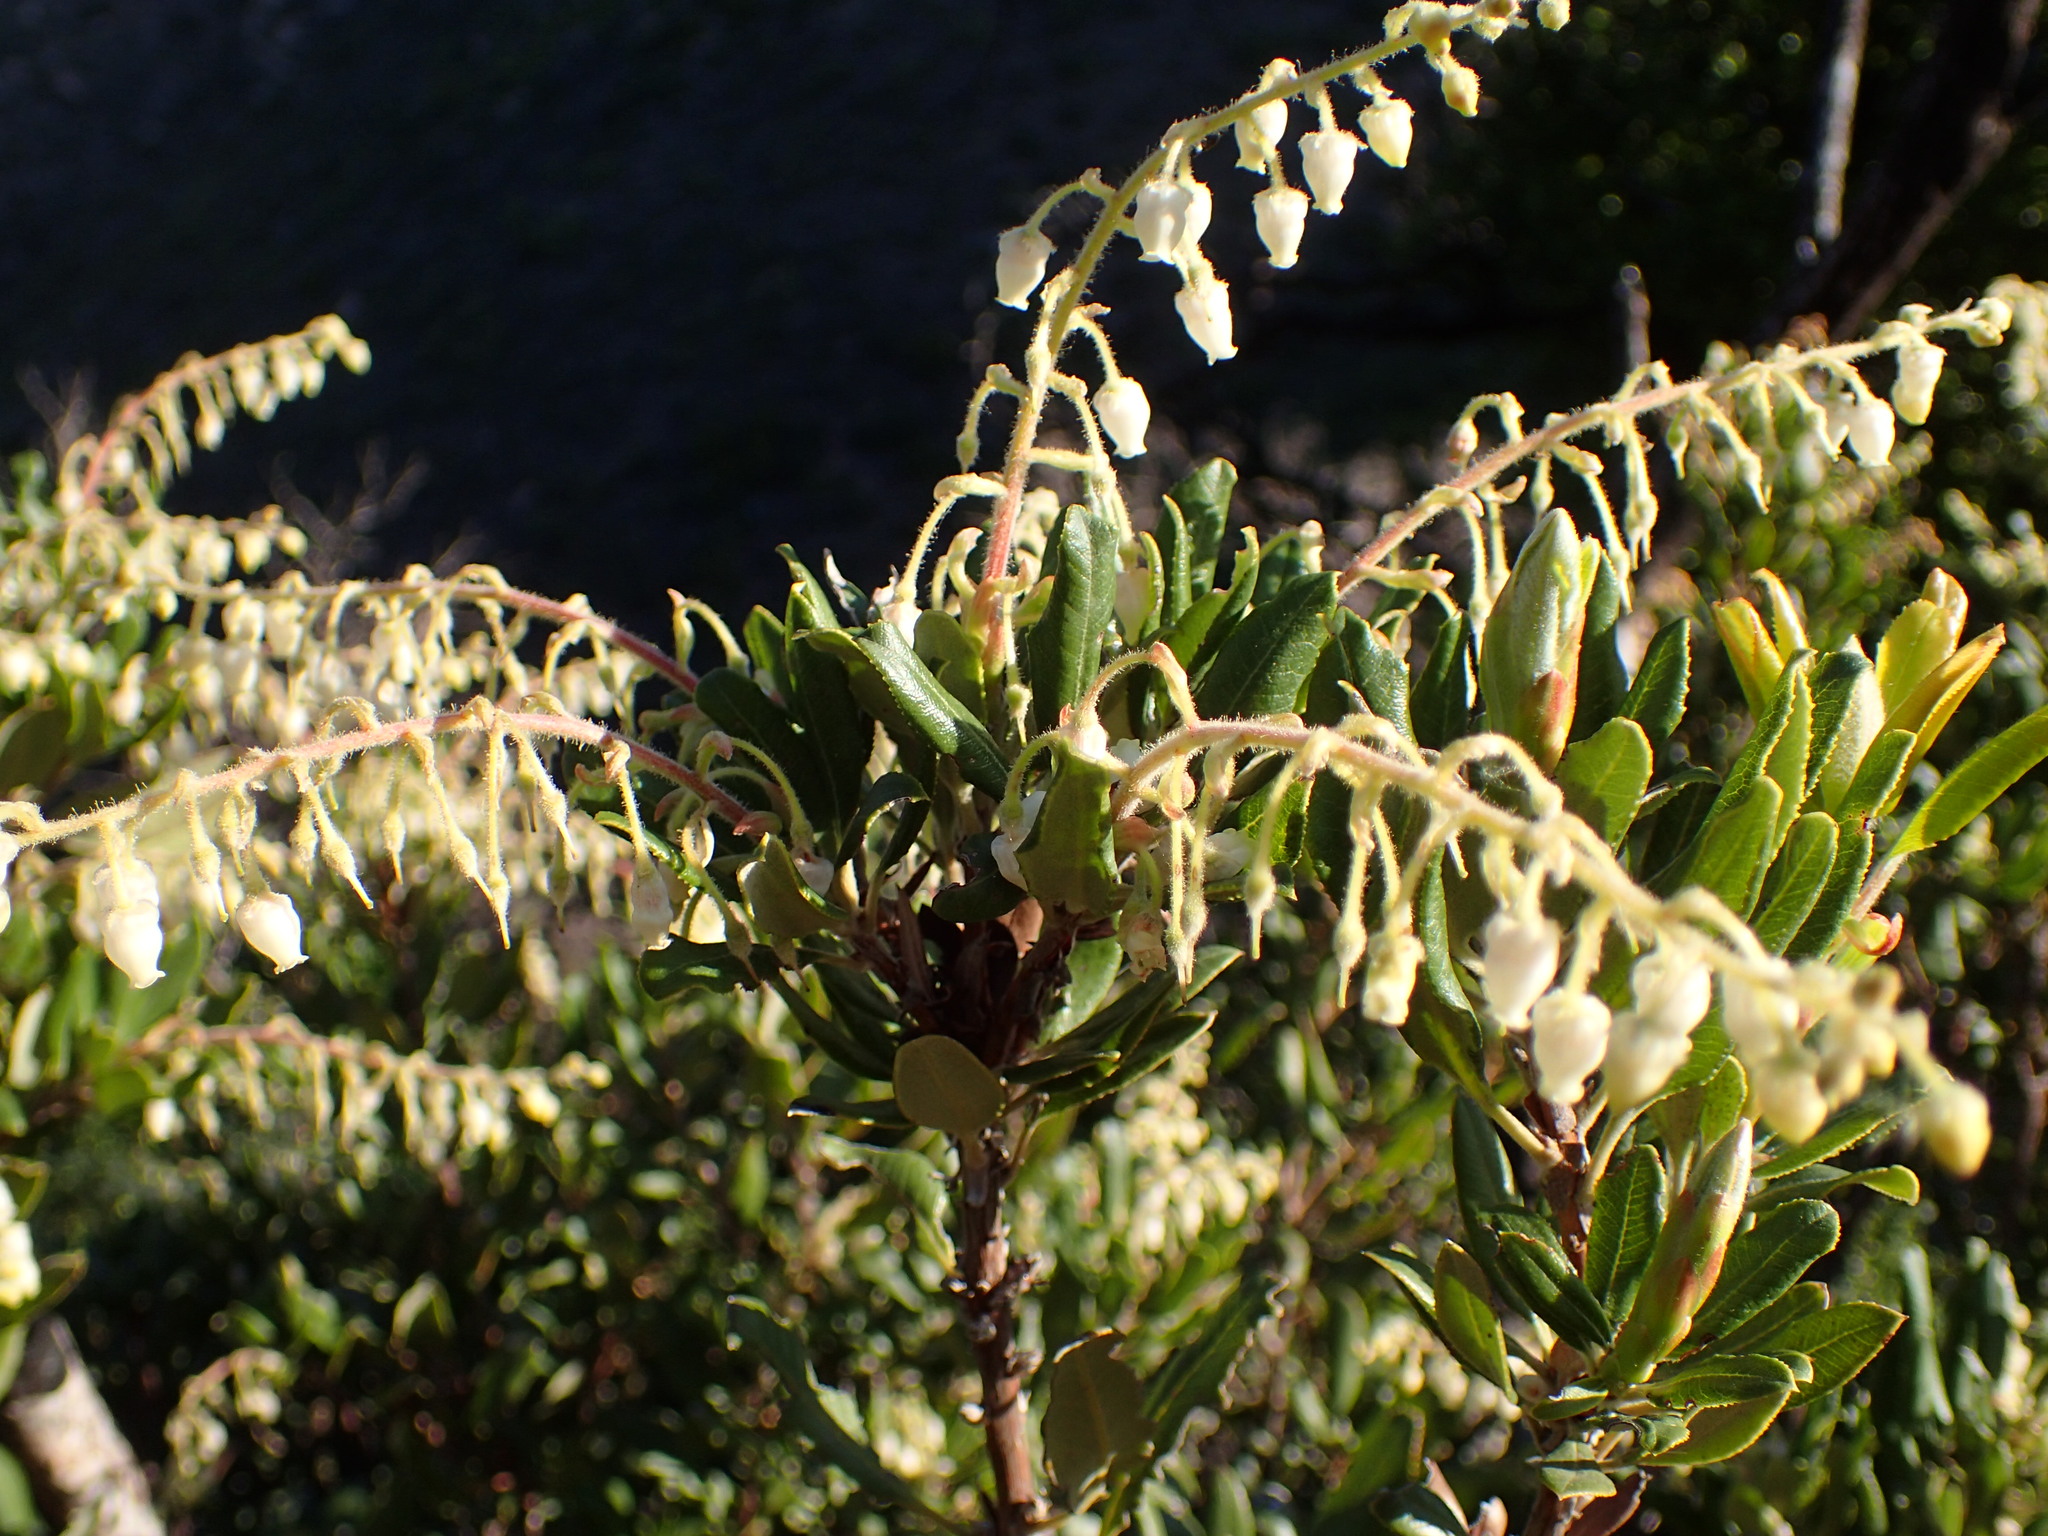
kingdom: Plantae
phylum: Tracheophyta
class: Magnoliopsida
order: Ericales
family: Ericaceae
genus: Comarostaphylis
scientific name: Comarostaphylis diversifolia
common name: Summer-holly
